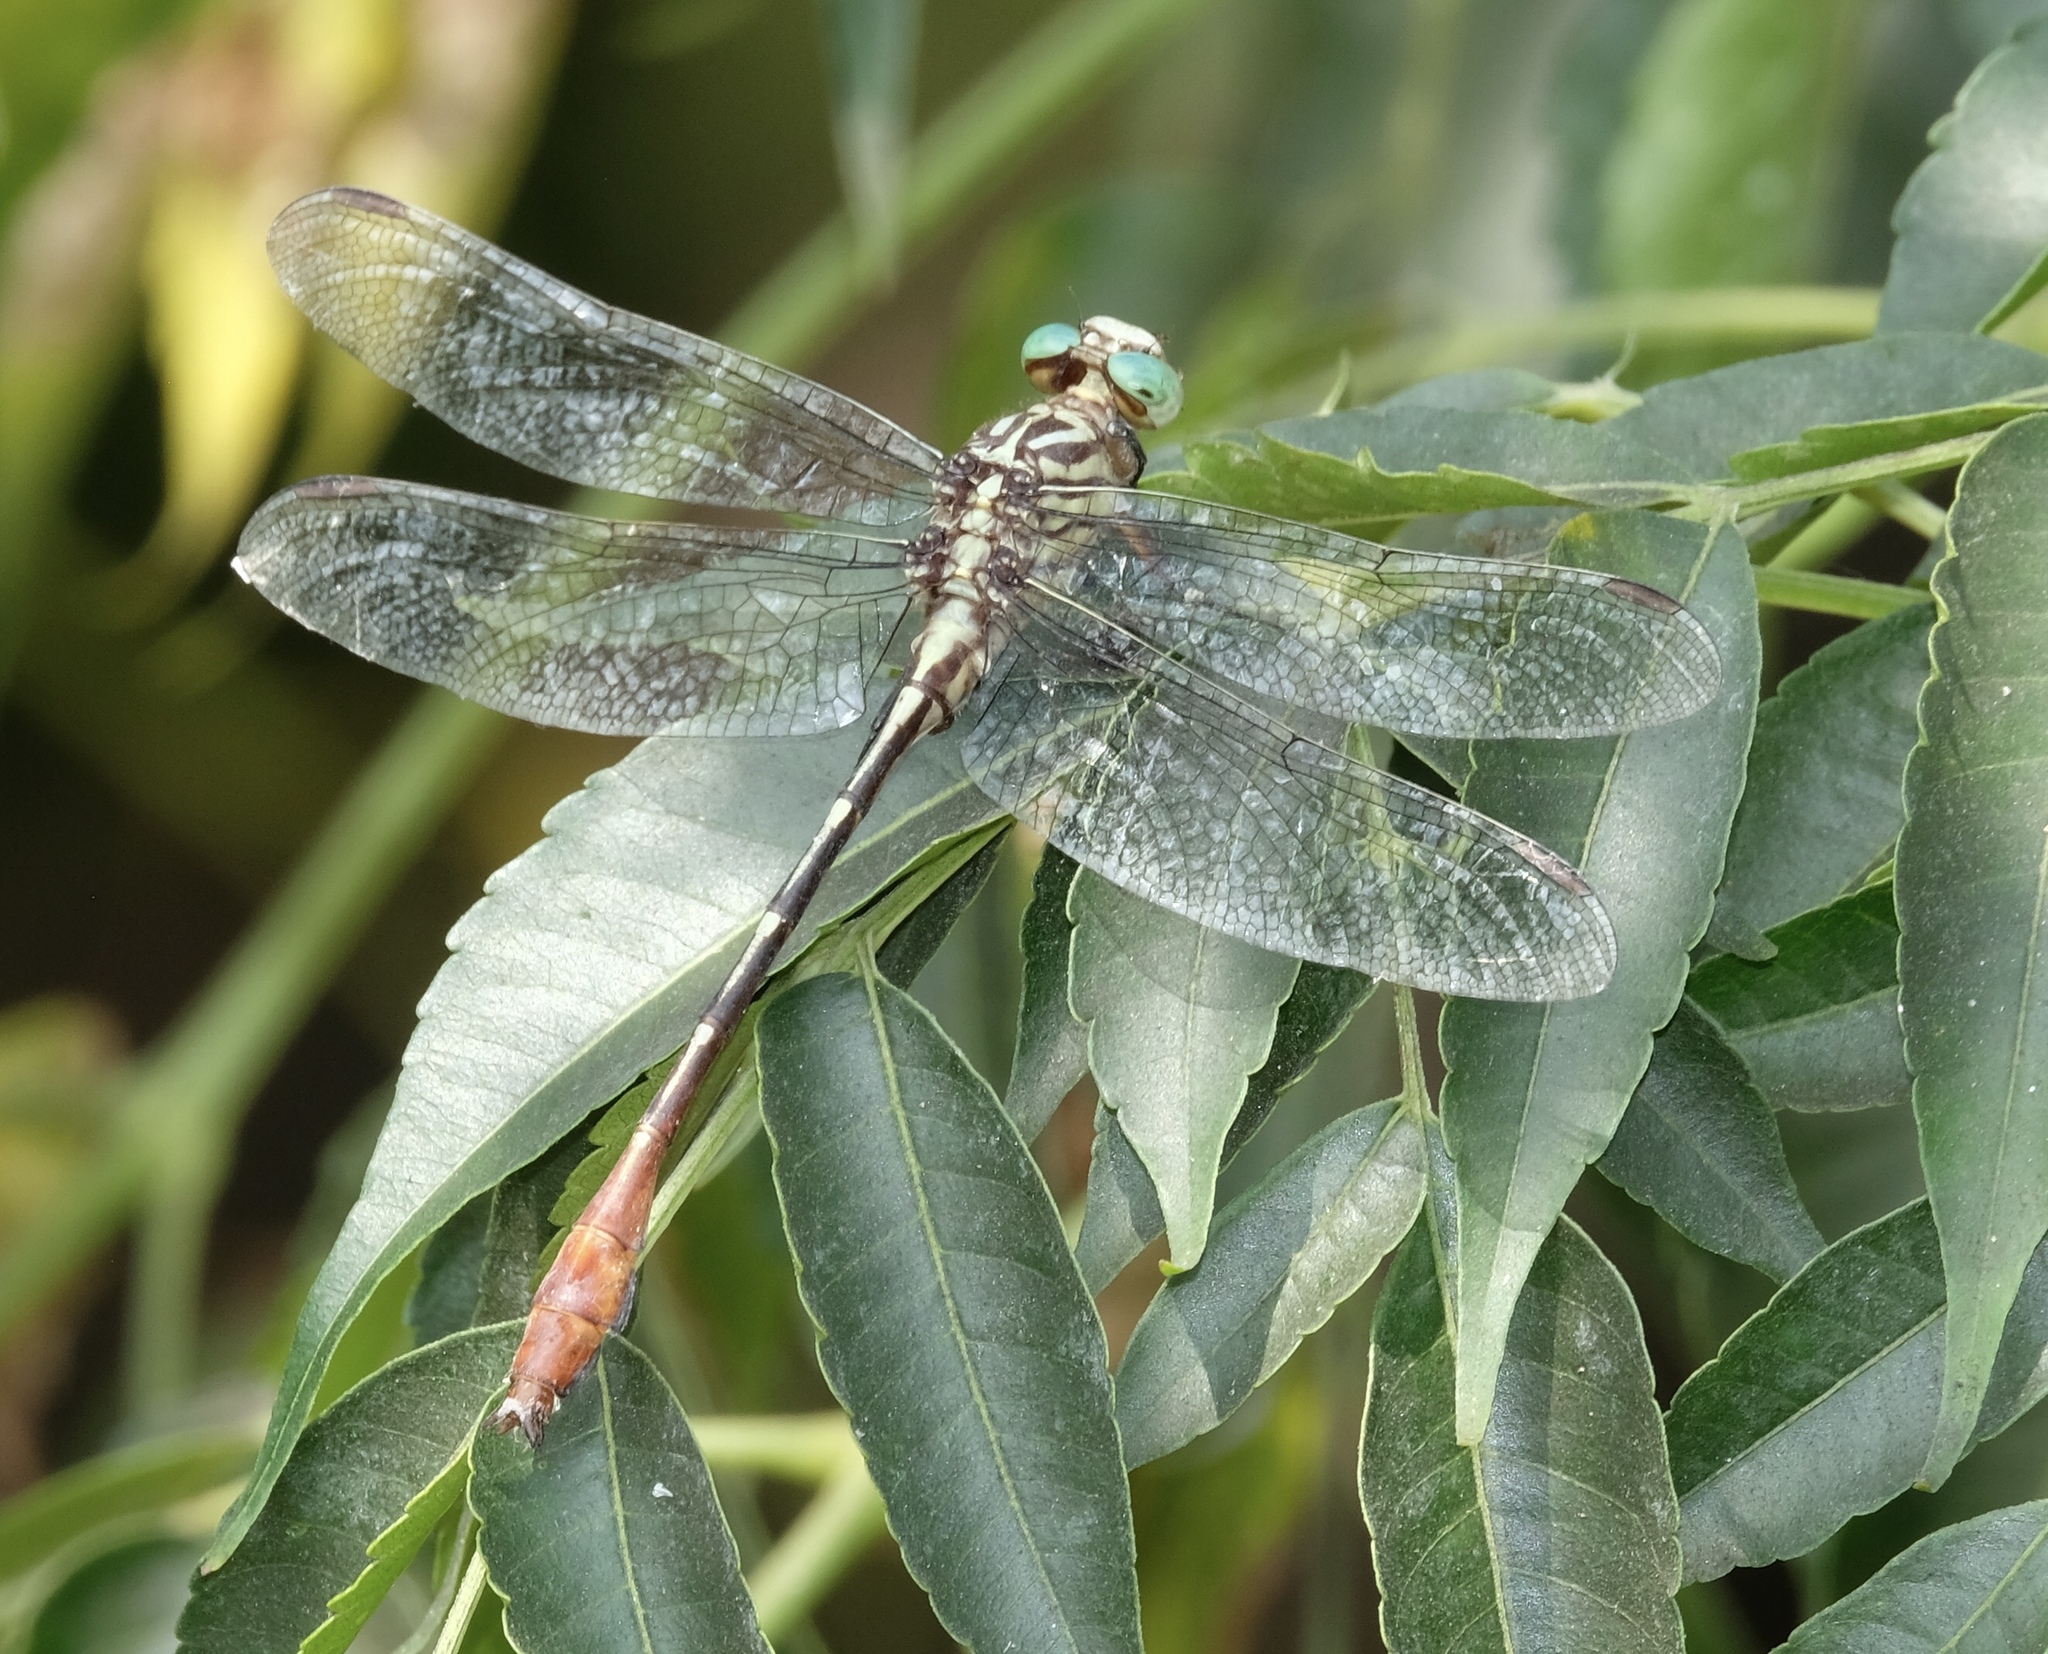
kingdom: Animalia
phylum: Arthropoda
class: Insecta
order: Odonata
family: Gomphidae
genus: Stylurus
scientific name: Stylurus plagiatus
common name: Russet-tipped clubtail
